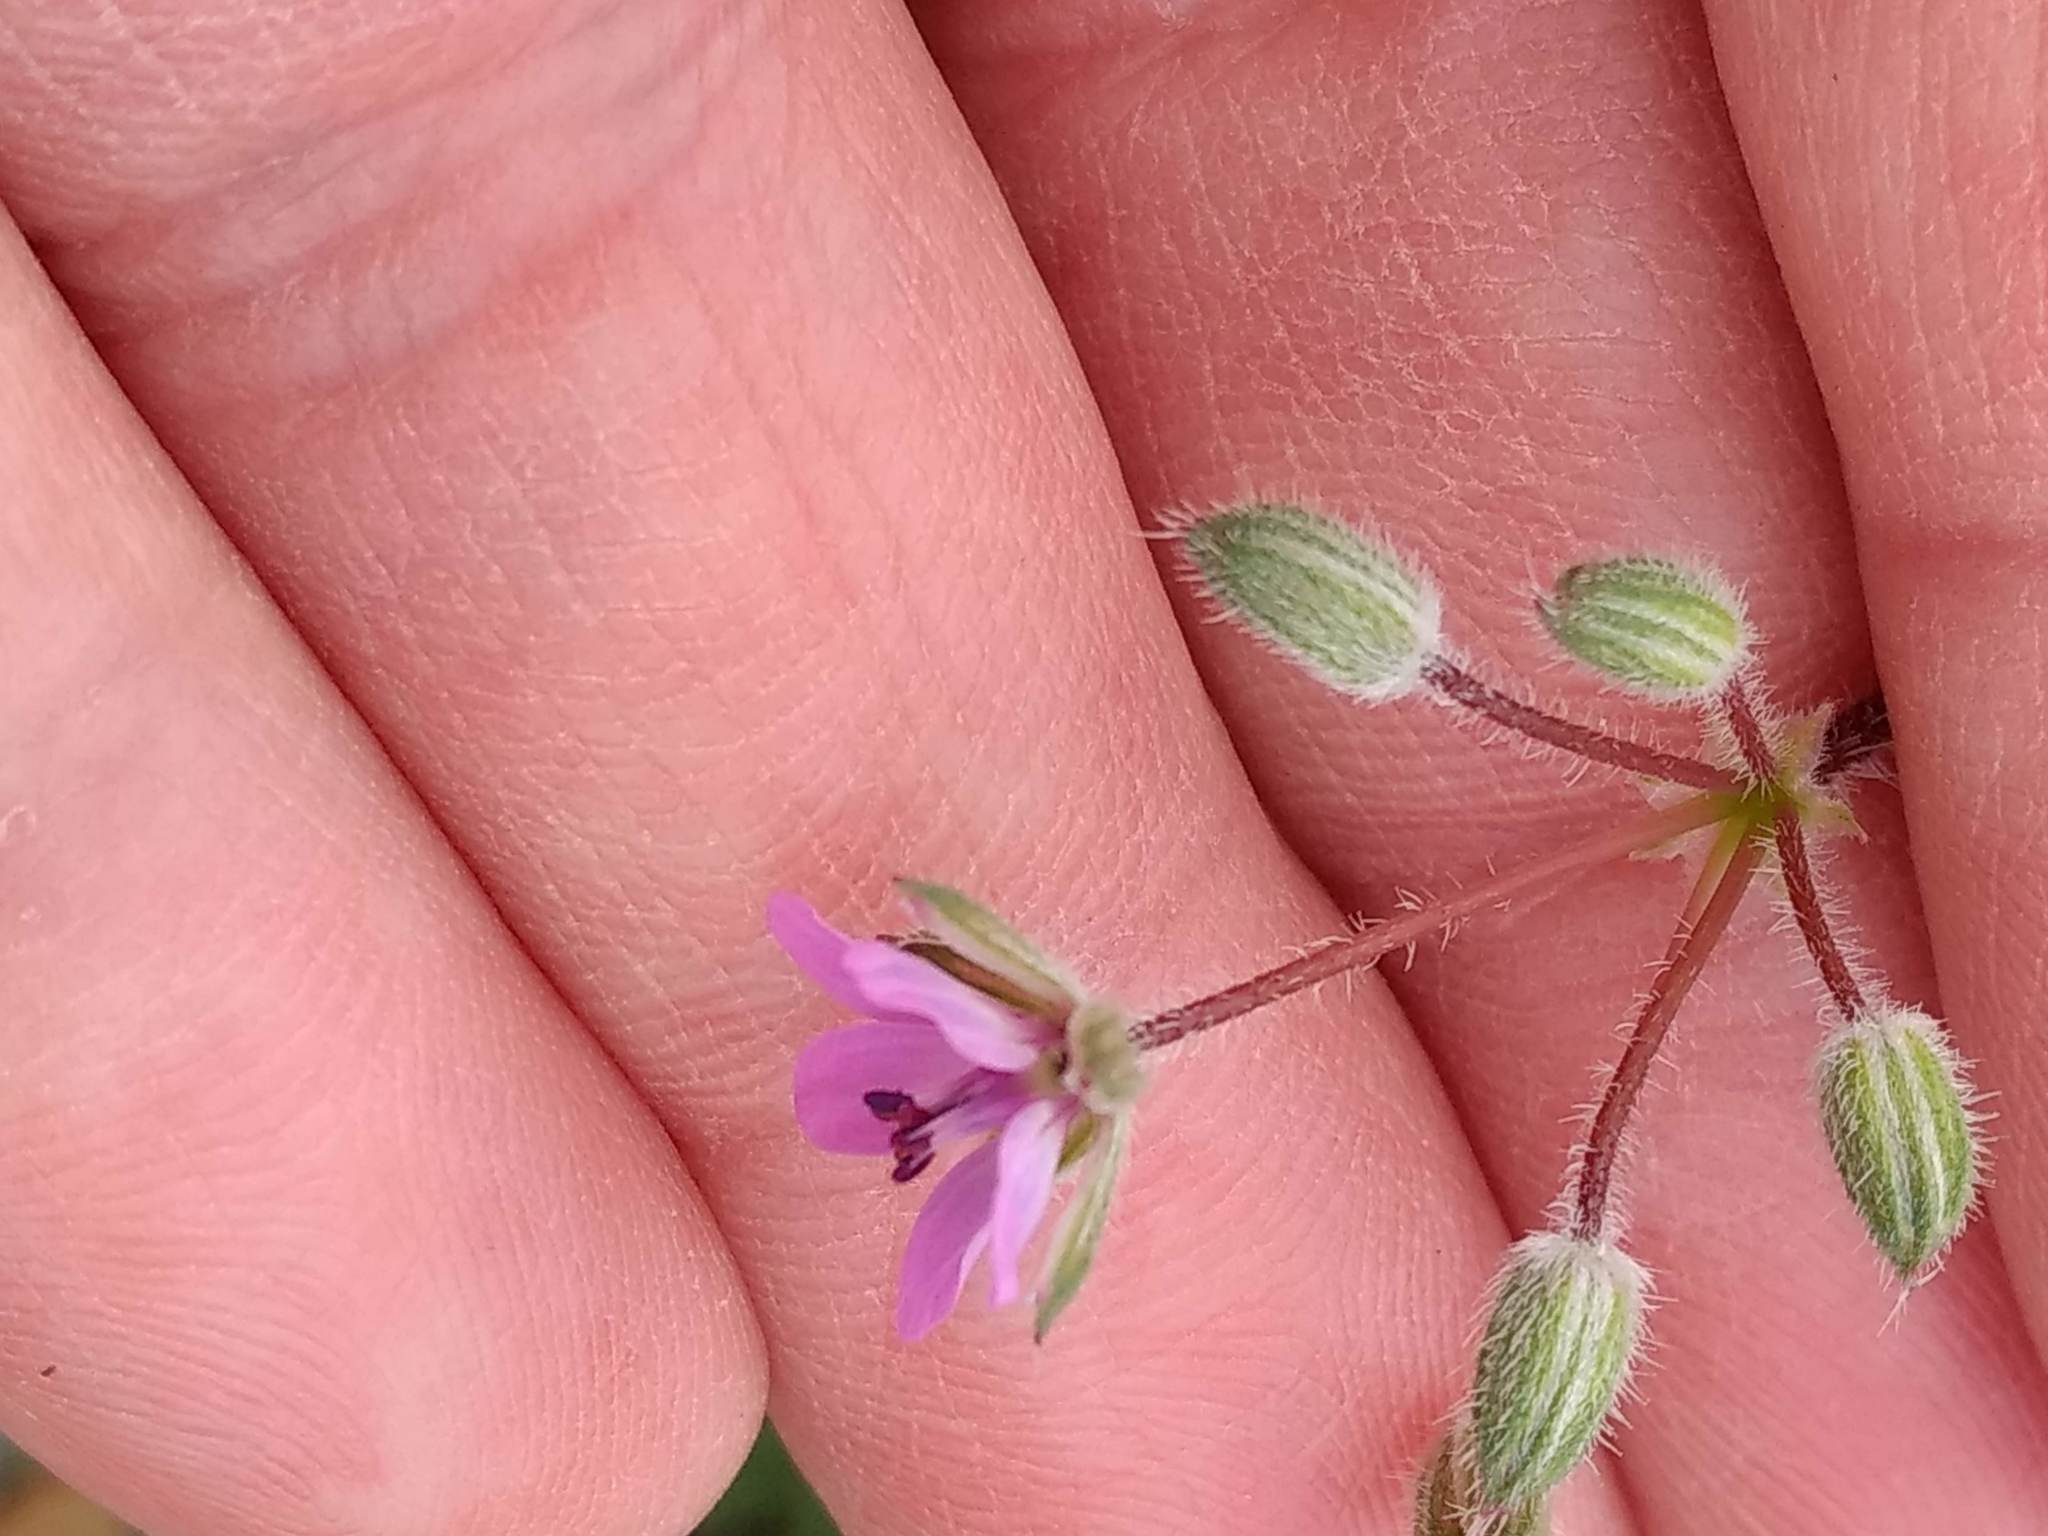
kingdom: Plantae
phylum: Tracheophyta
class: Magnoliopsida
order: Geraniales
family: Geraniaceae
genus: Erodium
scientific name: Erodium cicutarium
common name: Common stork's-bill
